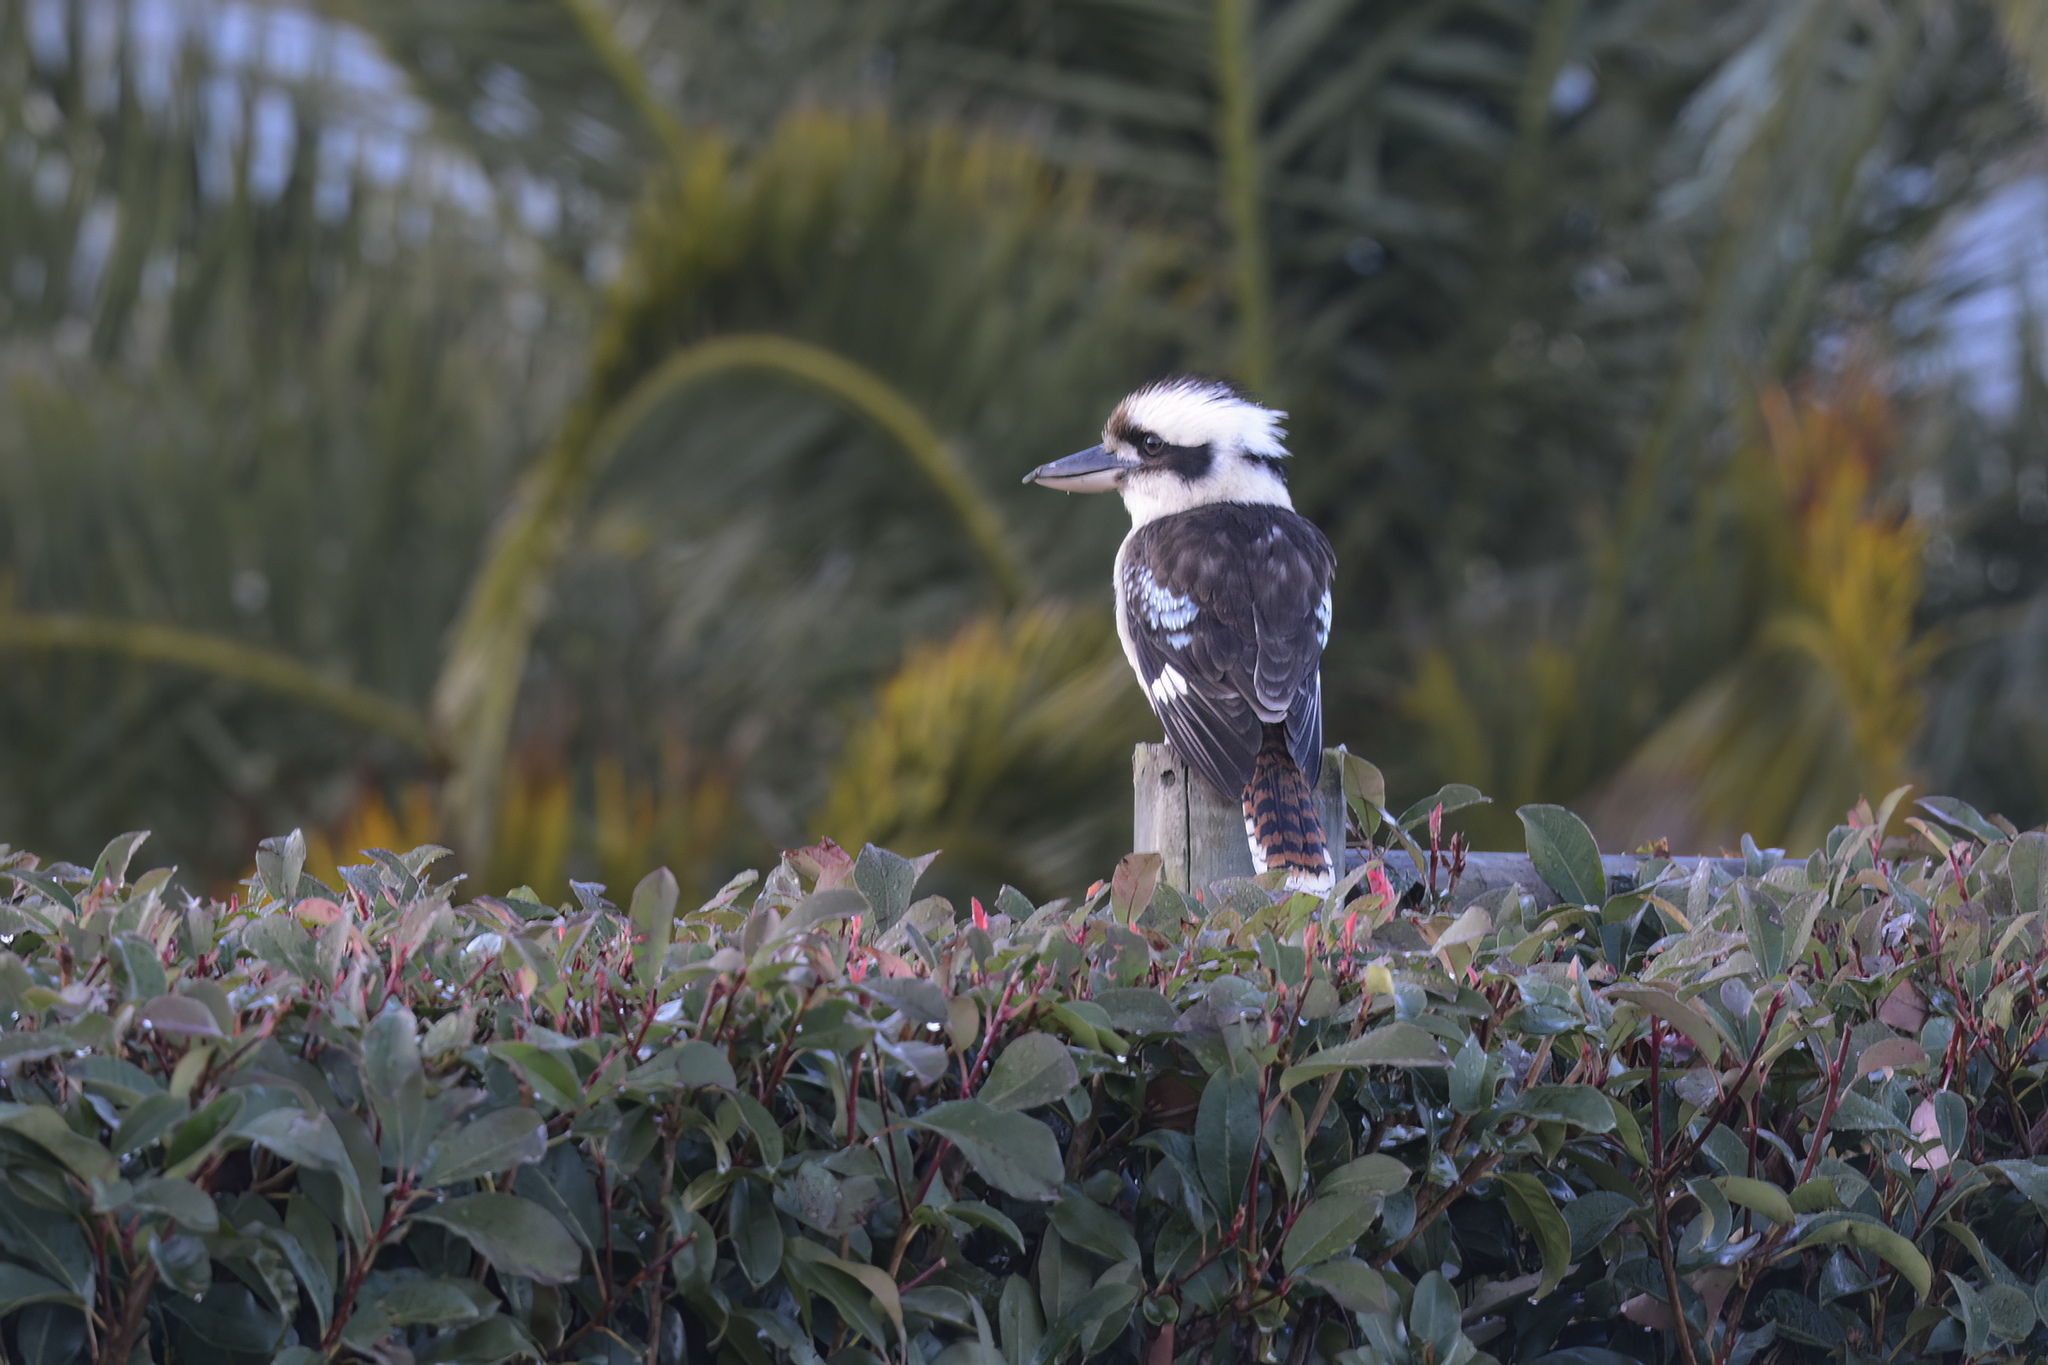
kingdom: Animalia
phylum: Chordata
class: Aves
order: Coraciiformes
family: Alcedinidae
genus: Dacelo
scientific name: Dacelo novaeguineae
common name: Laughing kookaburra
